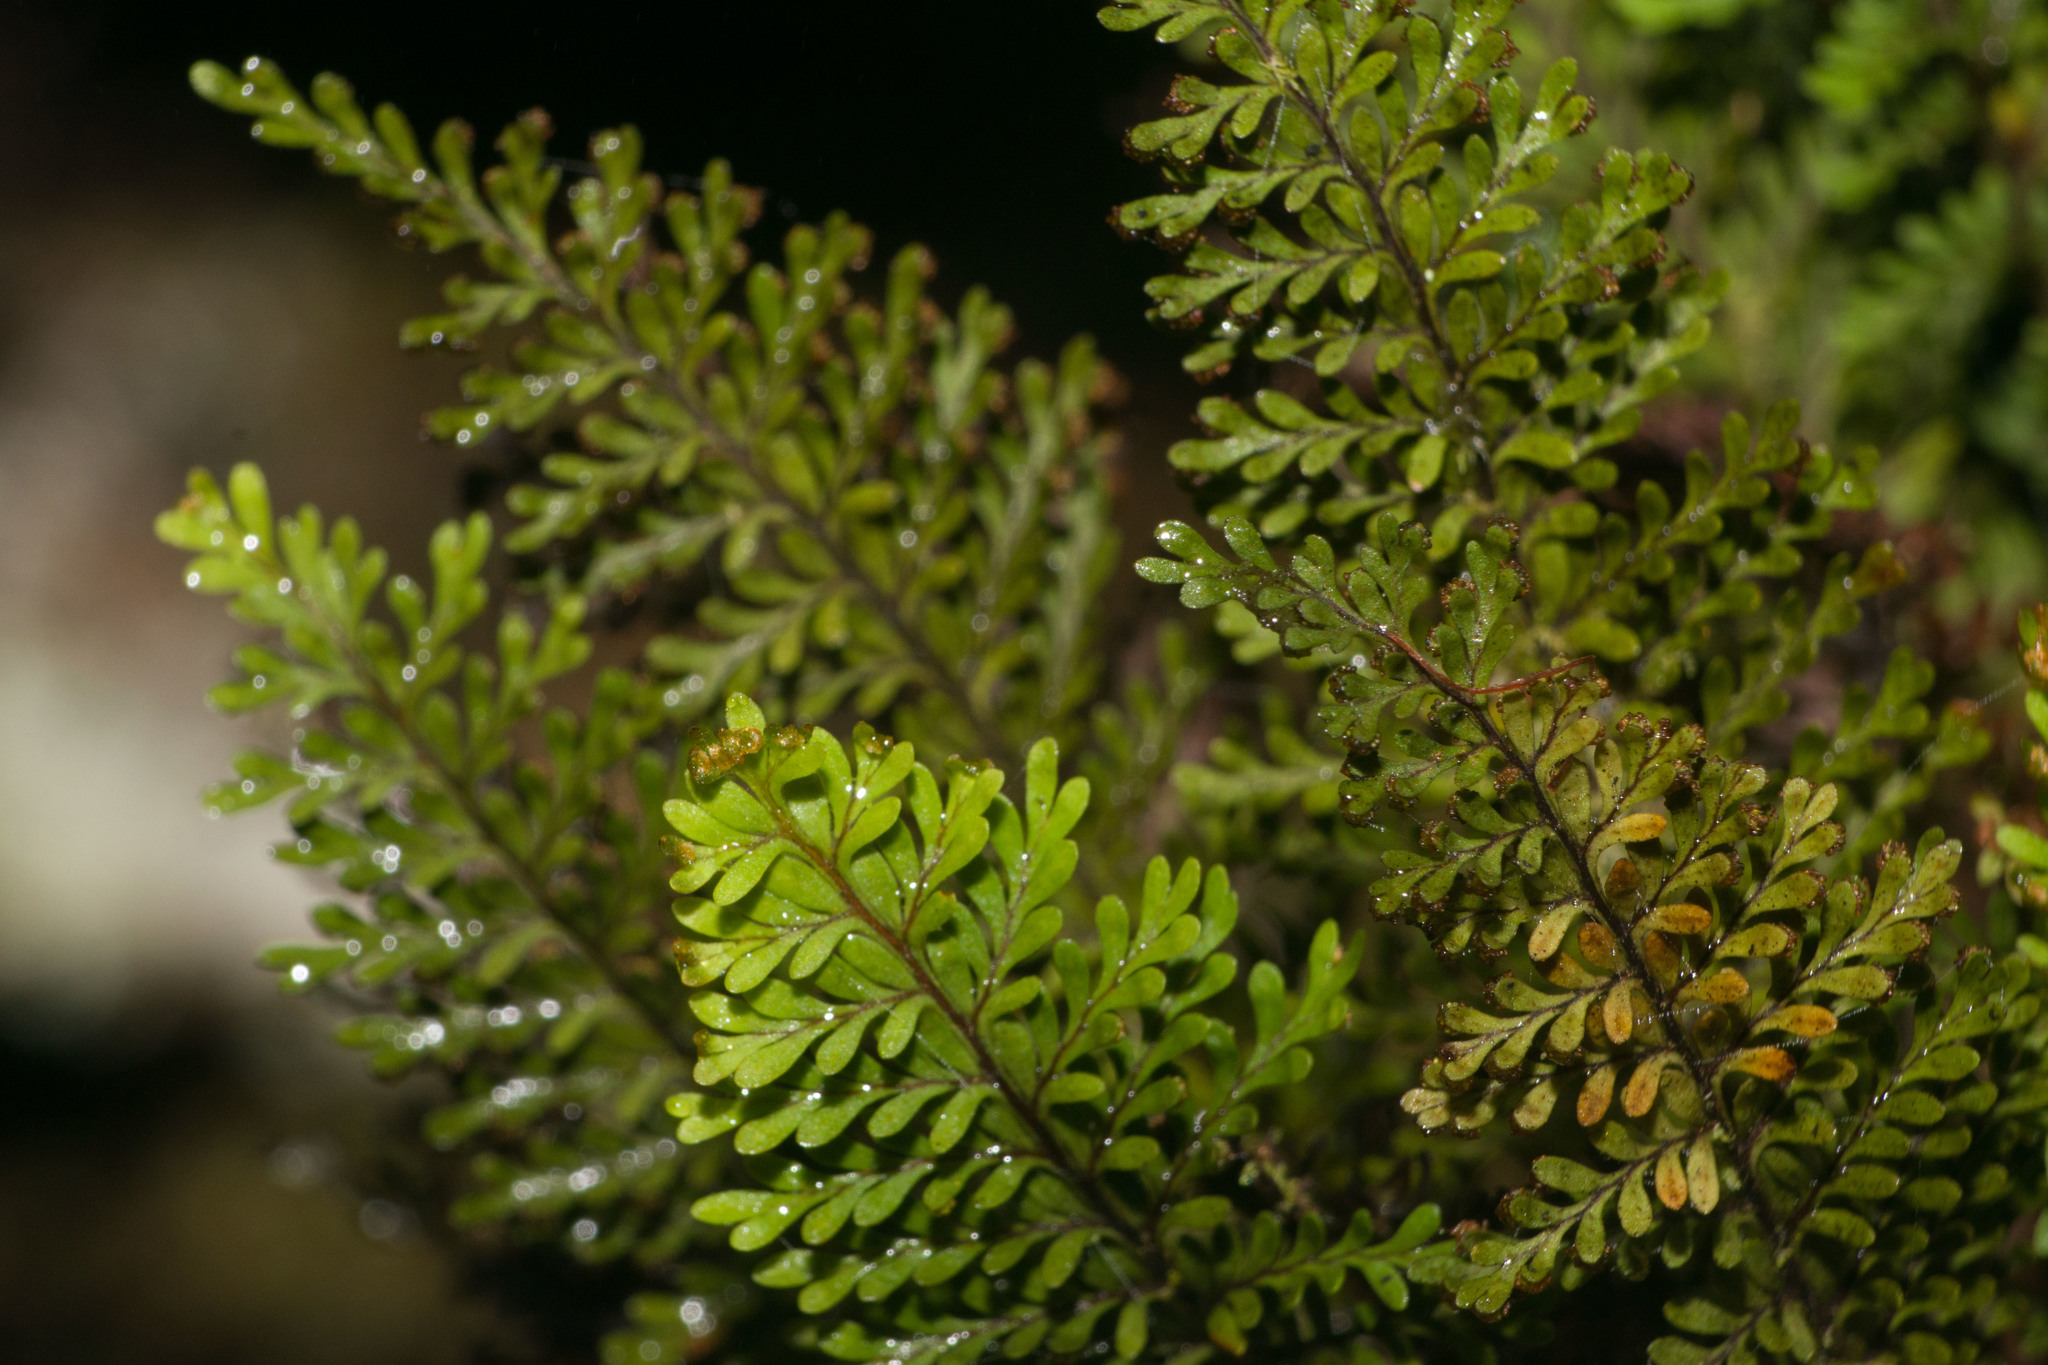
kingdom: Plantae
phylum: Tracheophyta
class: Polypodiopsida
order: Polypodiales
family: Polypodiaceae
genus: Adenophorus
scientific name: Adenophorus tamariscinus
